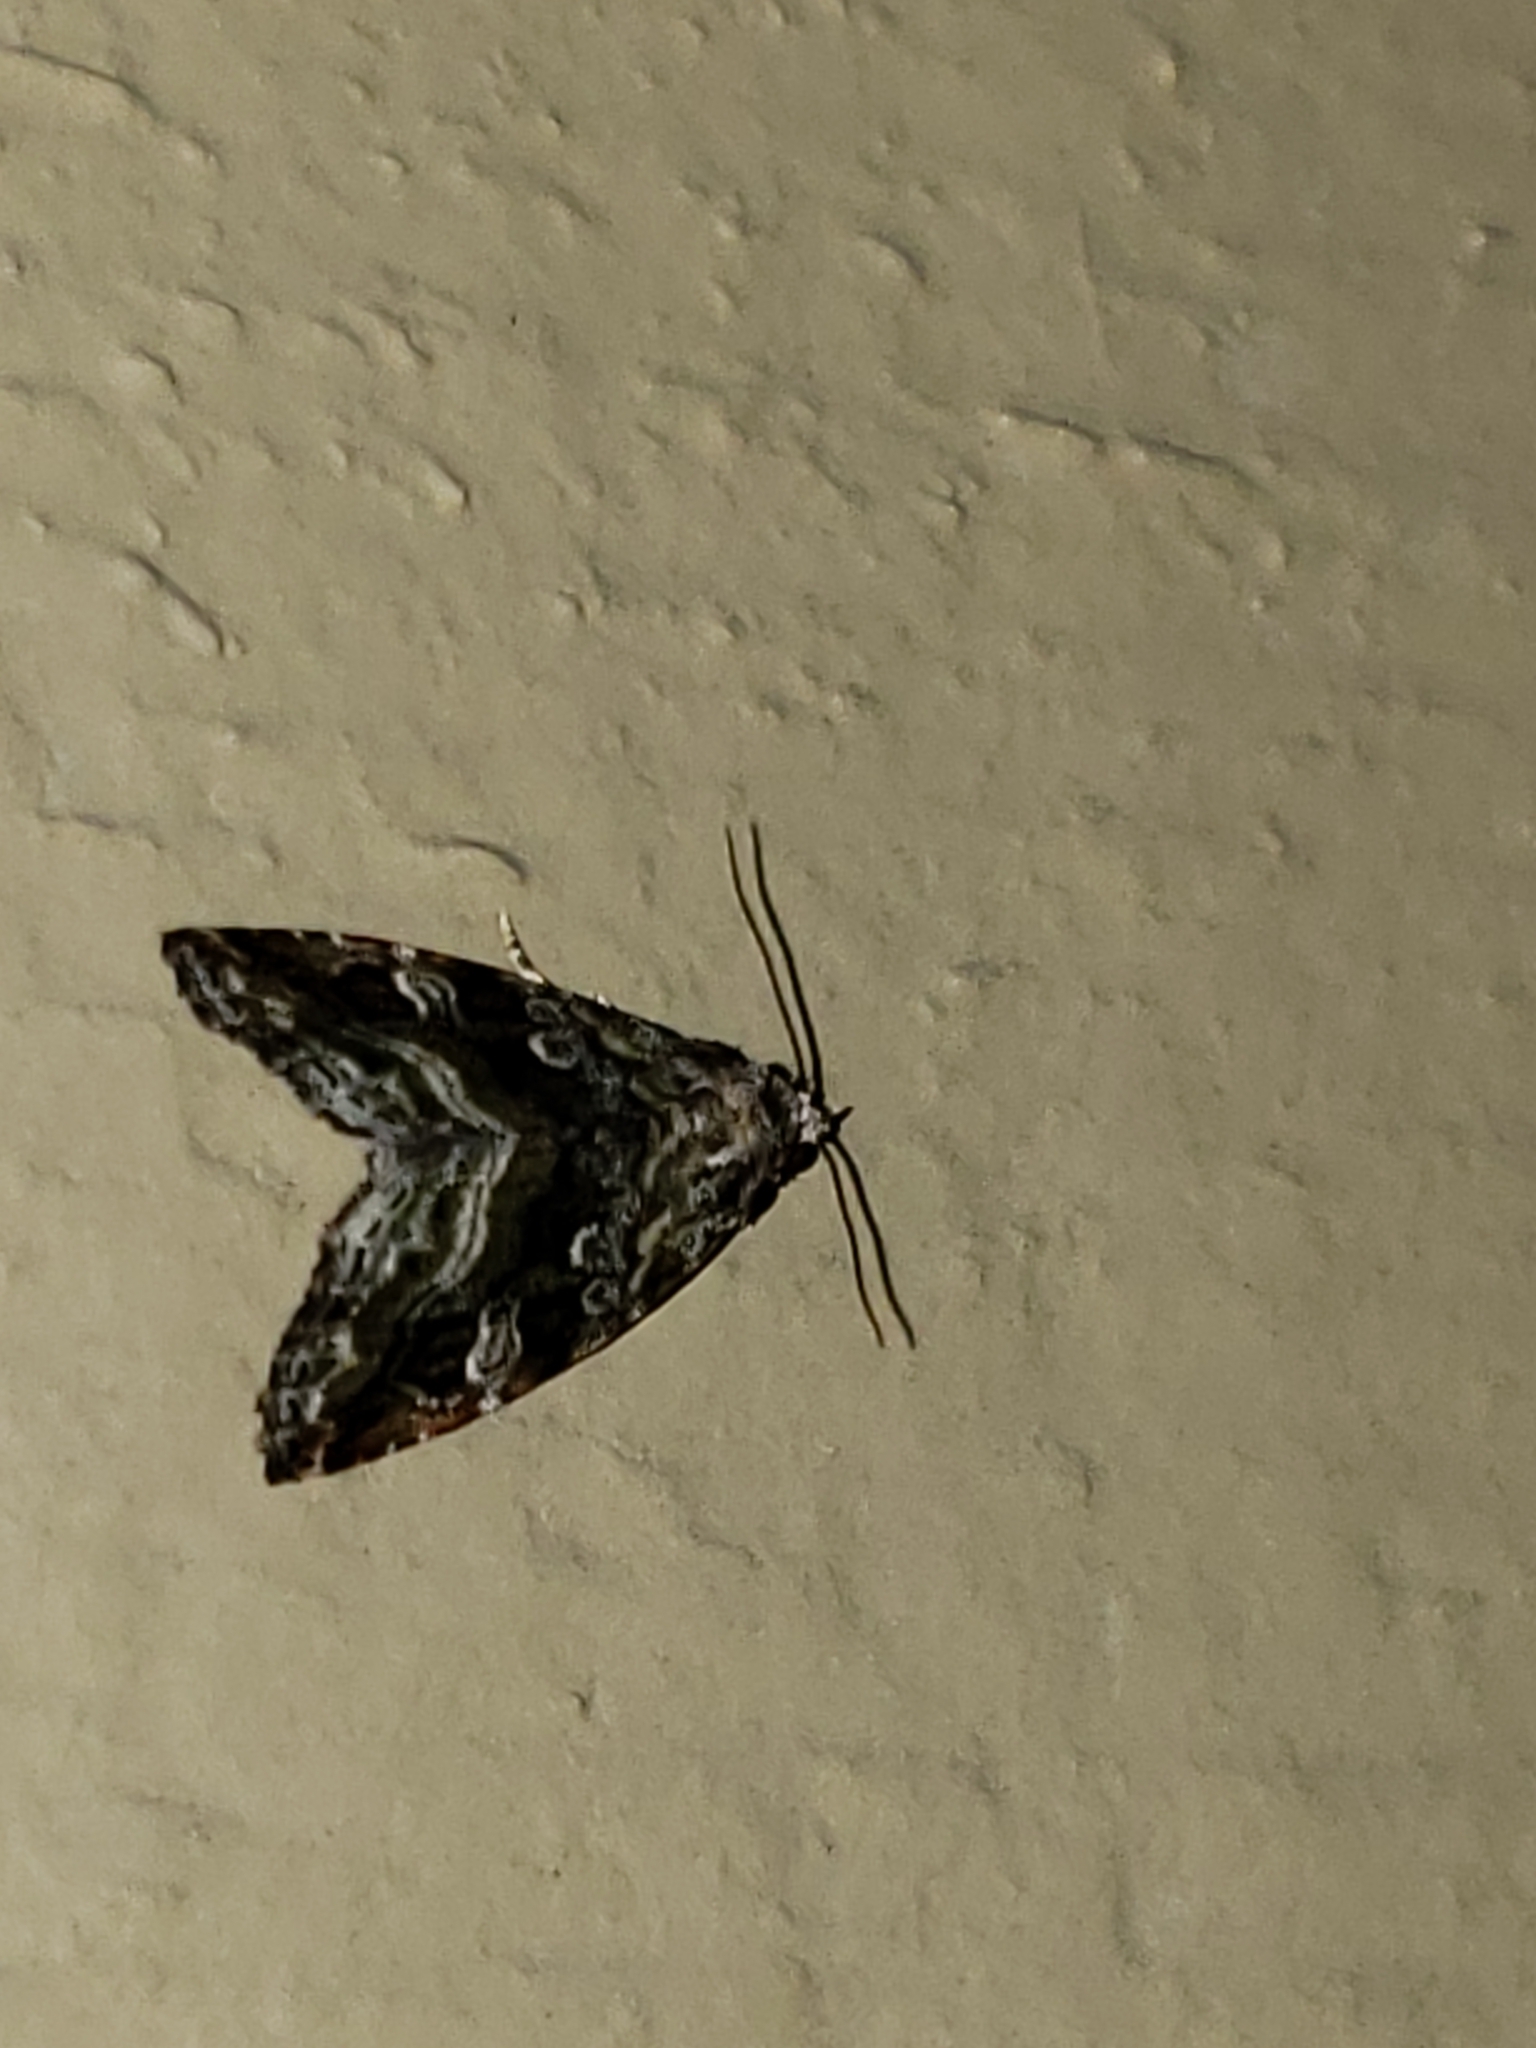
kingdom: Animalia
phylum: Arthropoda
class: Insecta
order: Lepidoptera
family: Noctuidae
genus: Protodeltote
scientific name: Protodeltote muscosula
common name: Large mossy glyph
